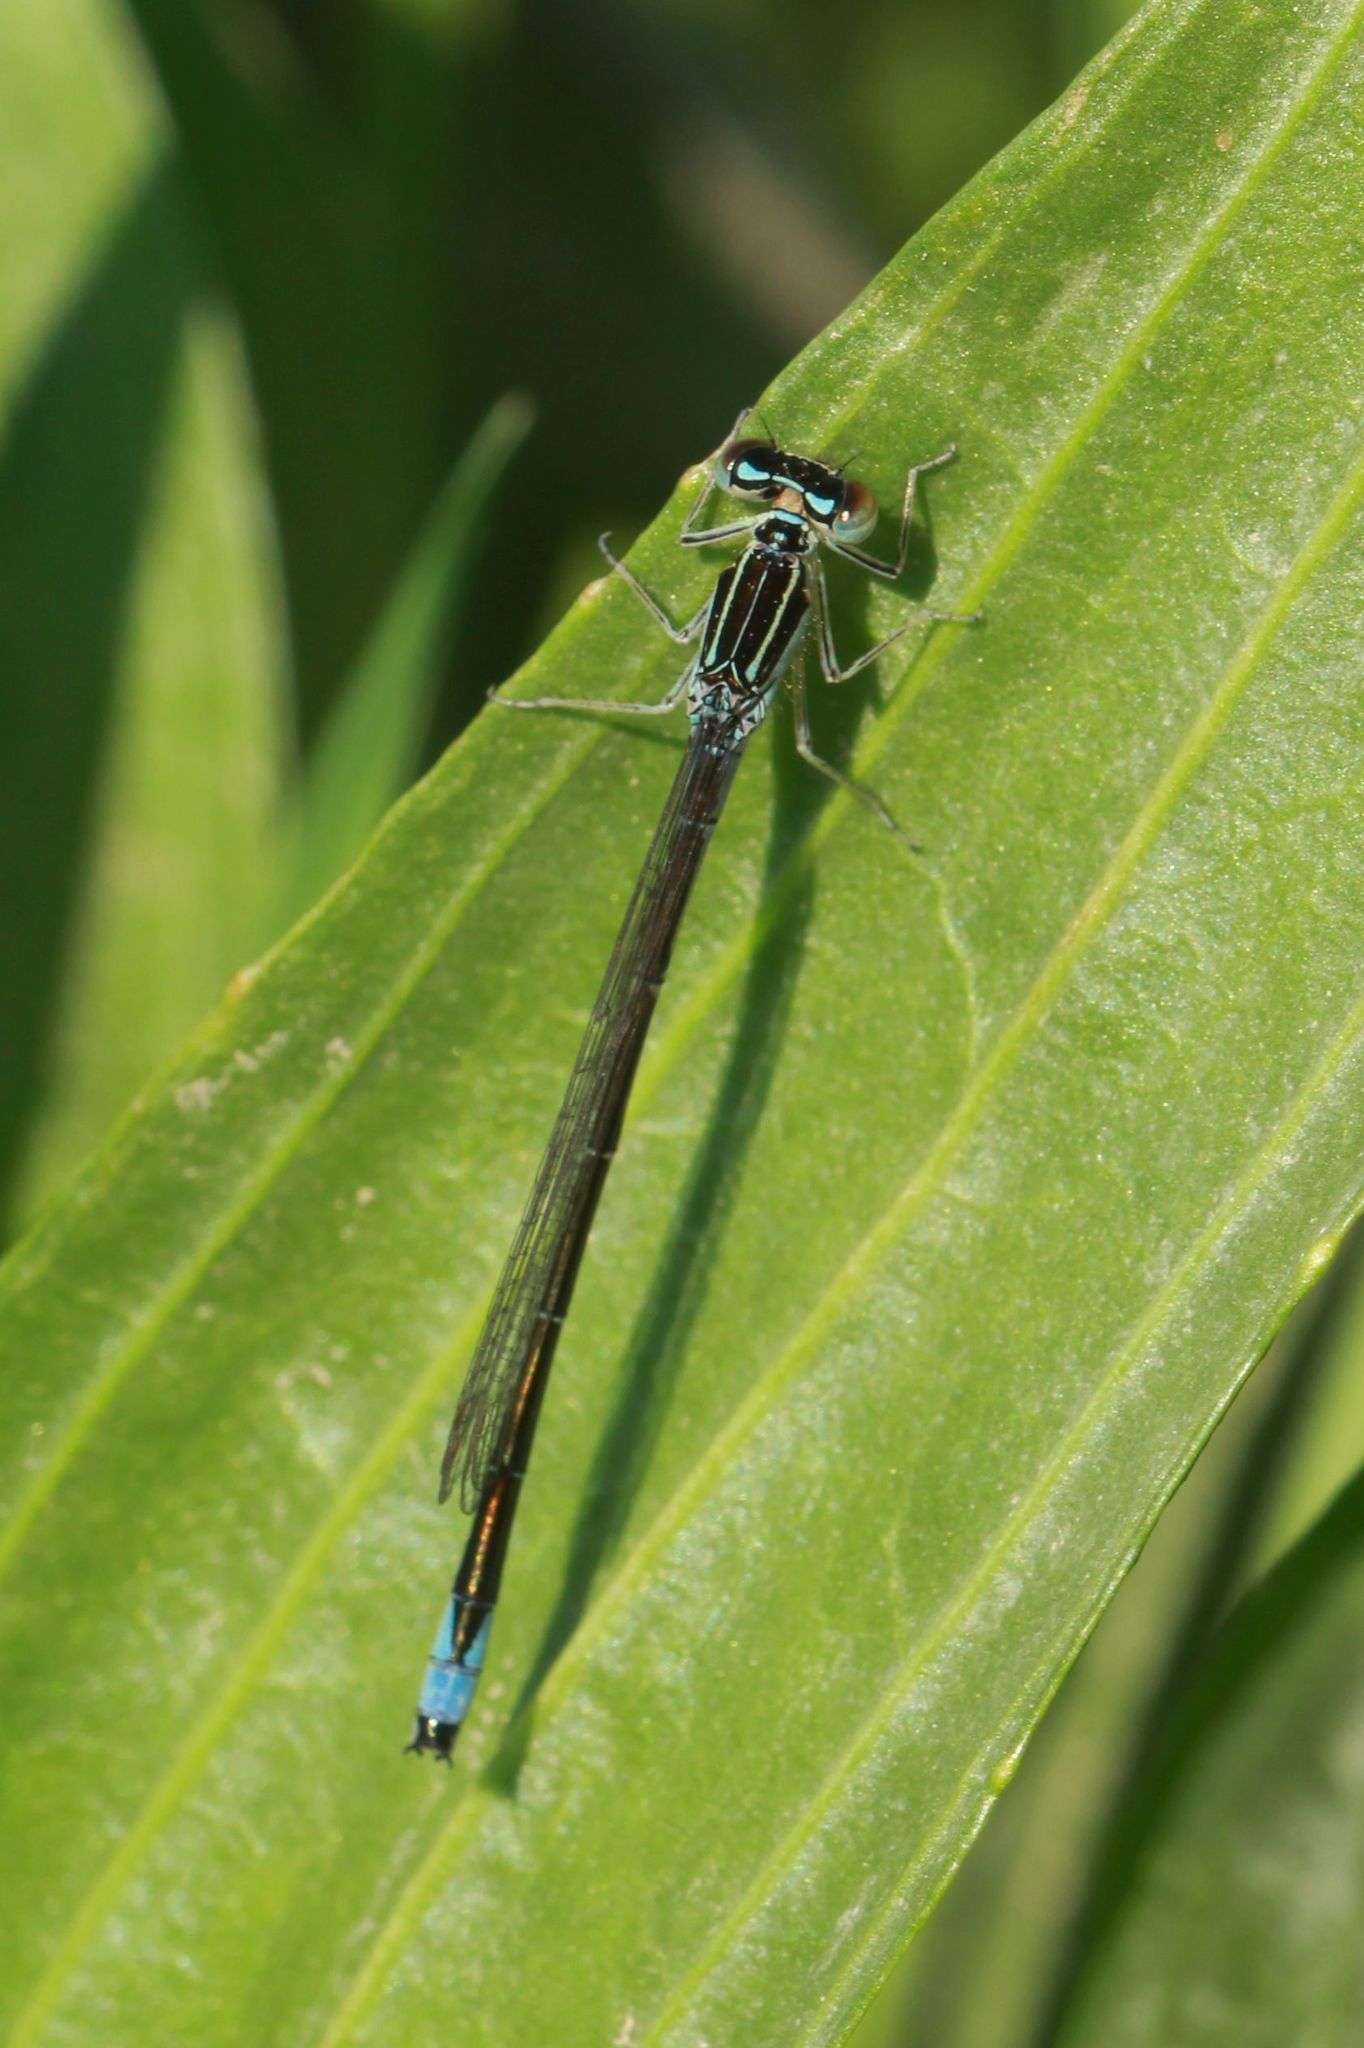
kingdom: Animalia
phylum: Arthropoda
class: Insecta
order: Odonata
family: Coenagrionidae
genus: Enallagma
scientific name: Enallagma antennatum
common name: Rainbow bluet
